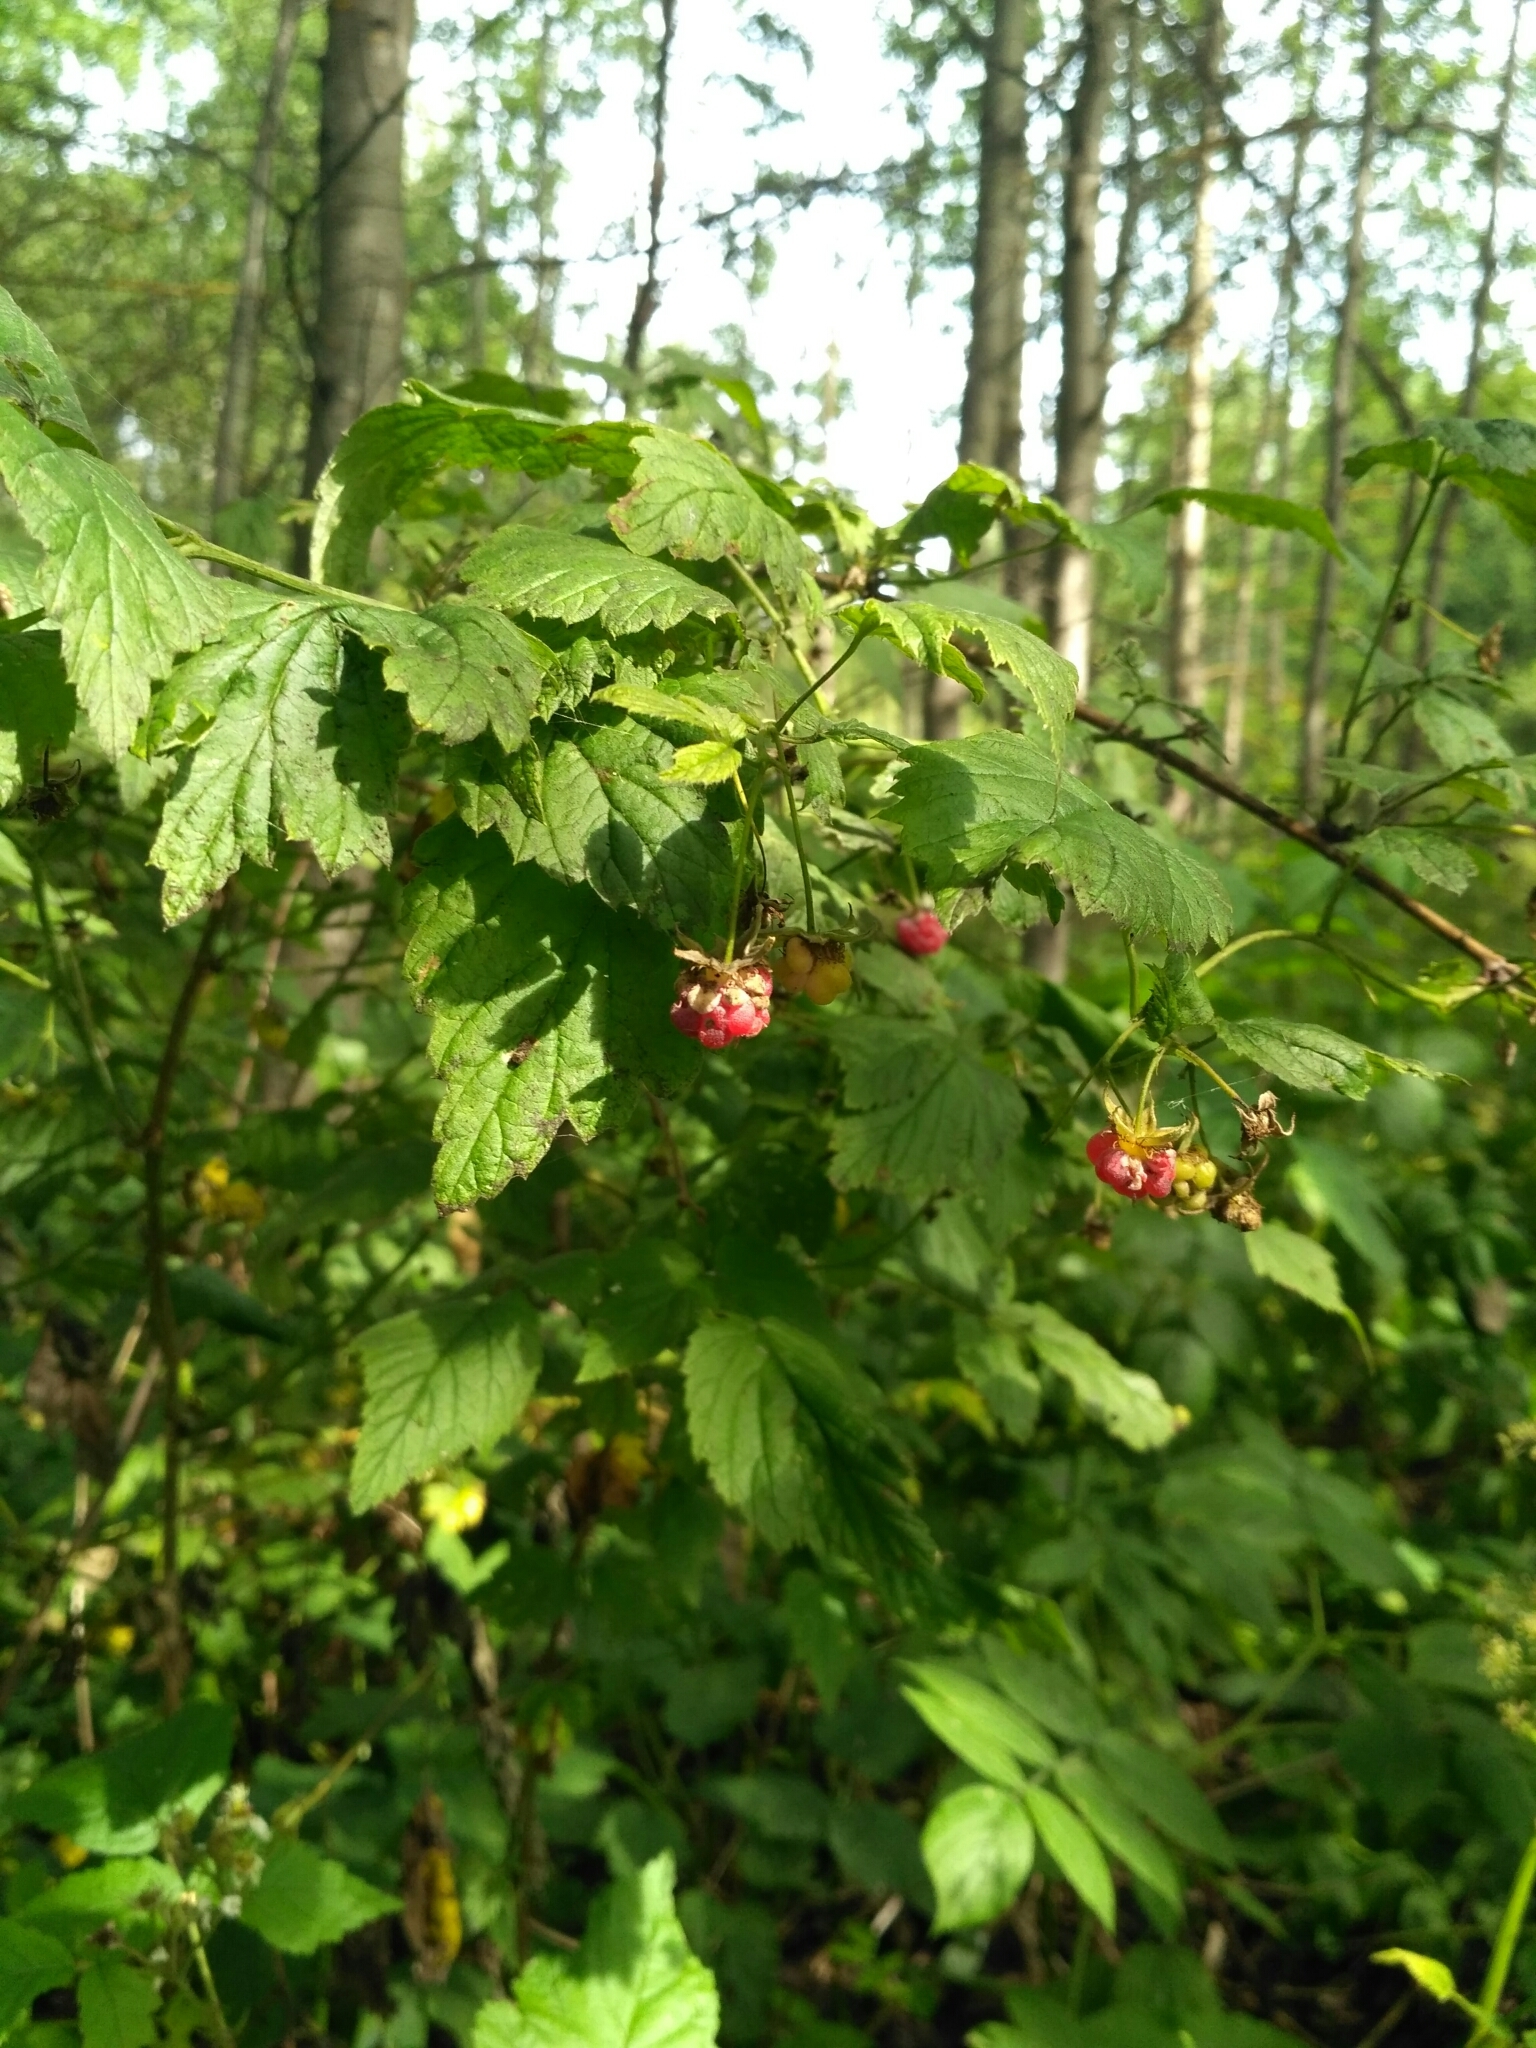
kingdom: Plantae
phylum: Tracheophyta
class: Magnoliopsida
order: Rosales
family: Rosaceae
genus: Rubus
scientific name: Rubus idaeus
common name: Raspberry
